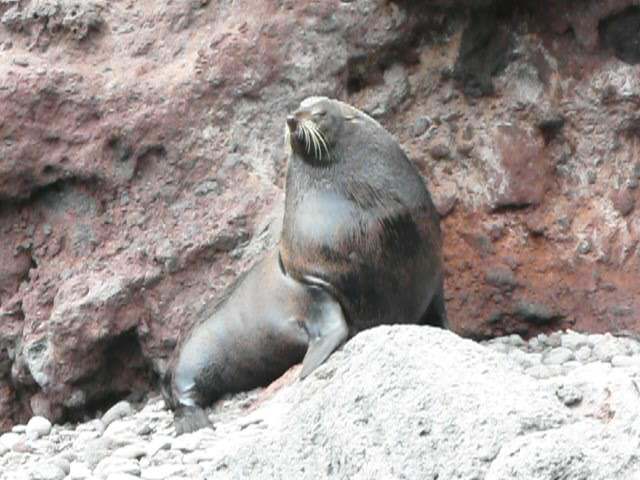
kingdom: Animalia
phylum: Chordata
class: Mammalia
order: Carnivora
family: Otariidae
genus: Arctocephalus
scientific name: Arctocephalus philippii
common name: Juan fernández fur seal
